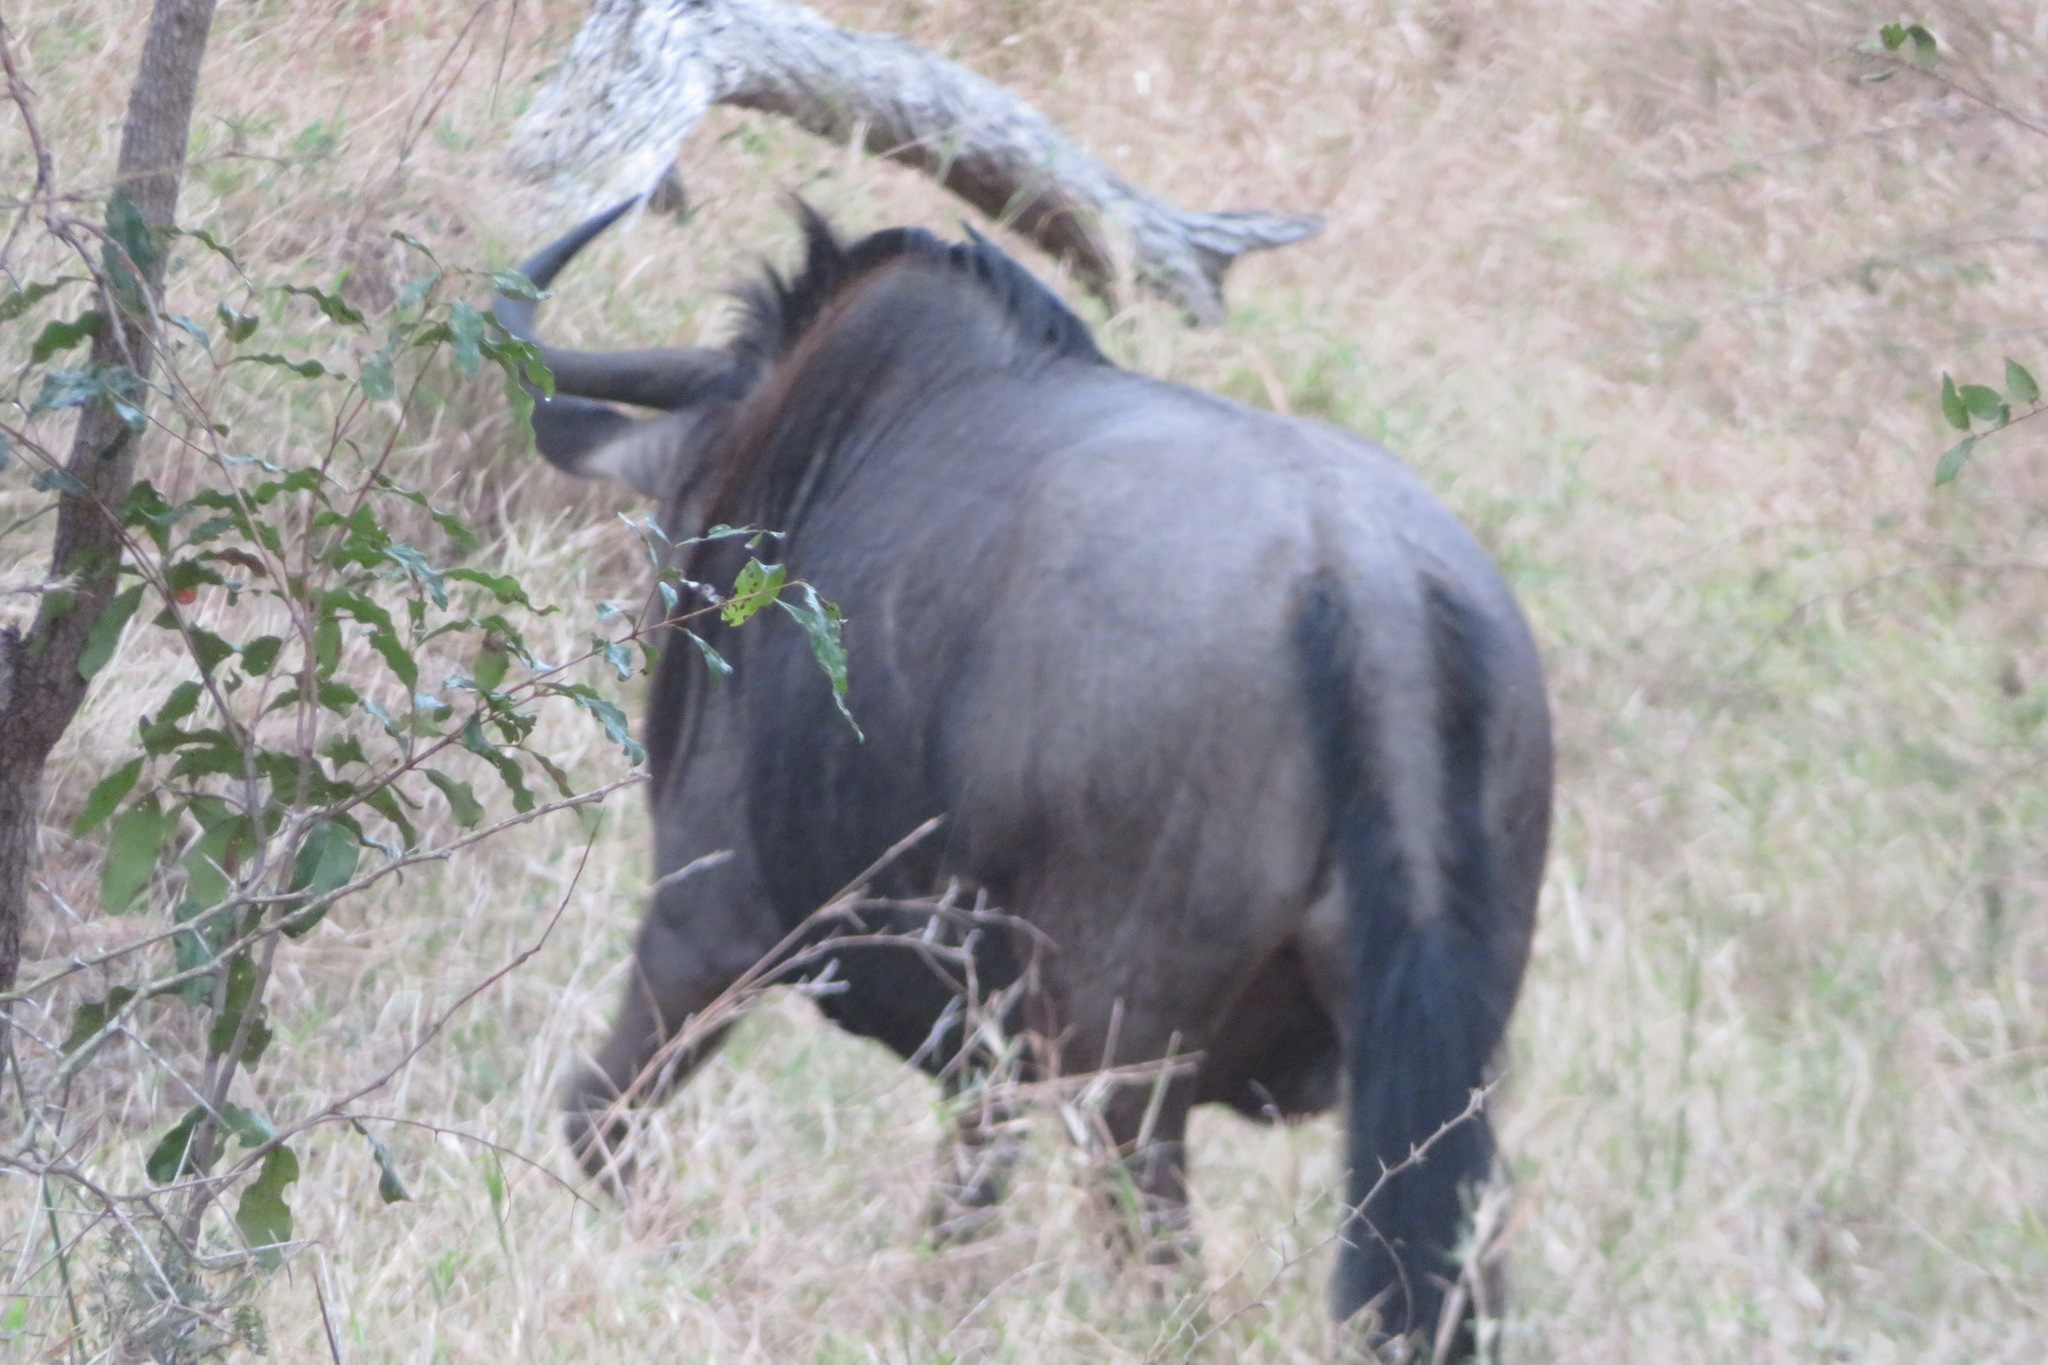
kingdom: Animalia
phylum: Chordata
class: Mammalia
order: Artiodactyla
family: Bovidae
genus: Connochaetes
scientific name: Connochaetes taurinus
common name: Blue wildebeest
